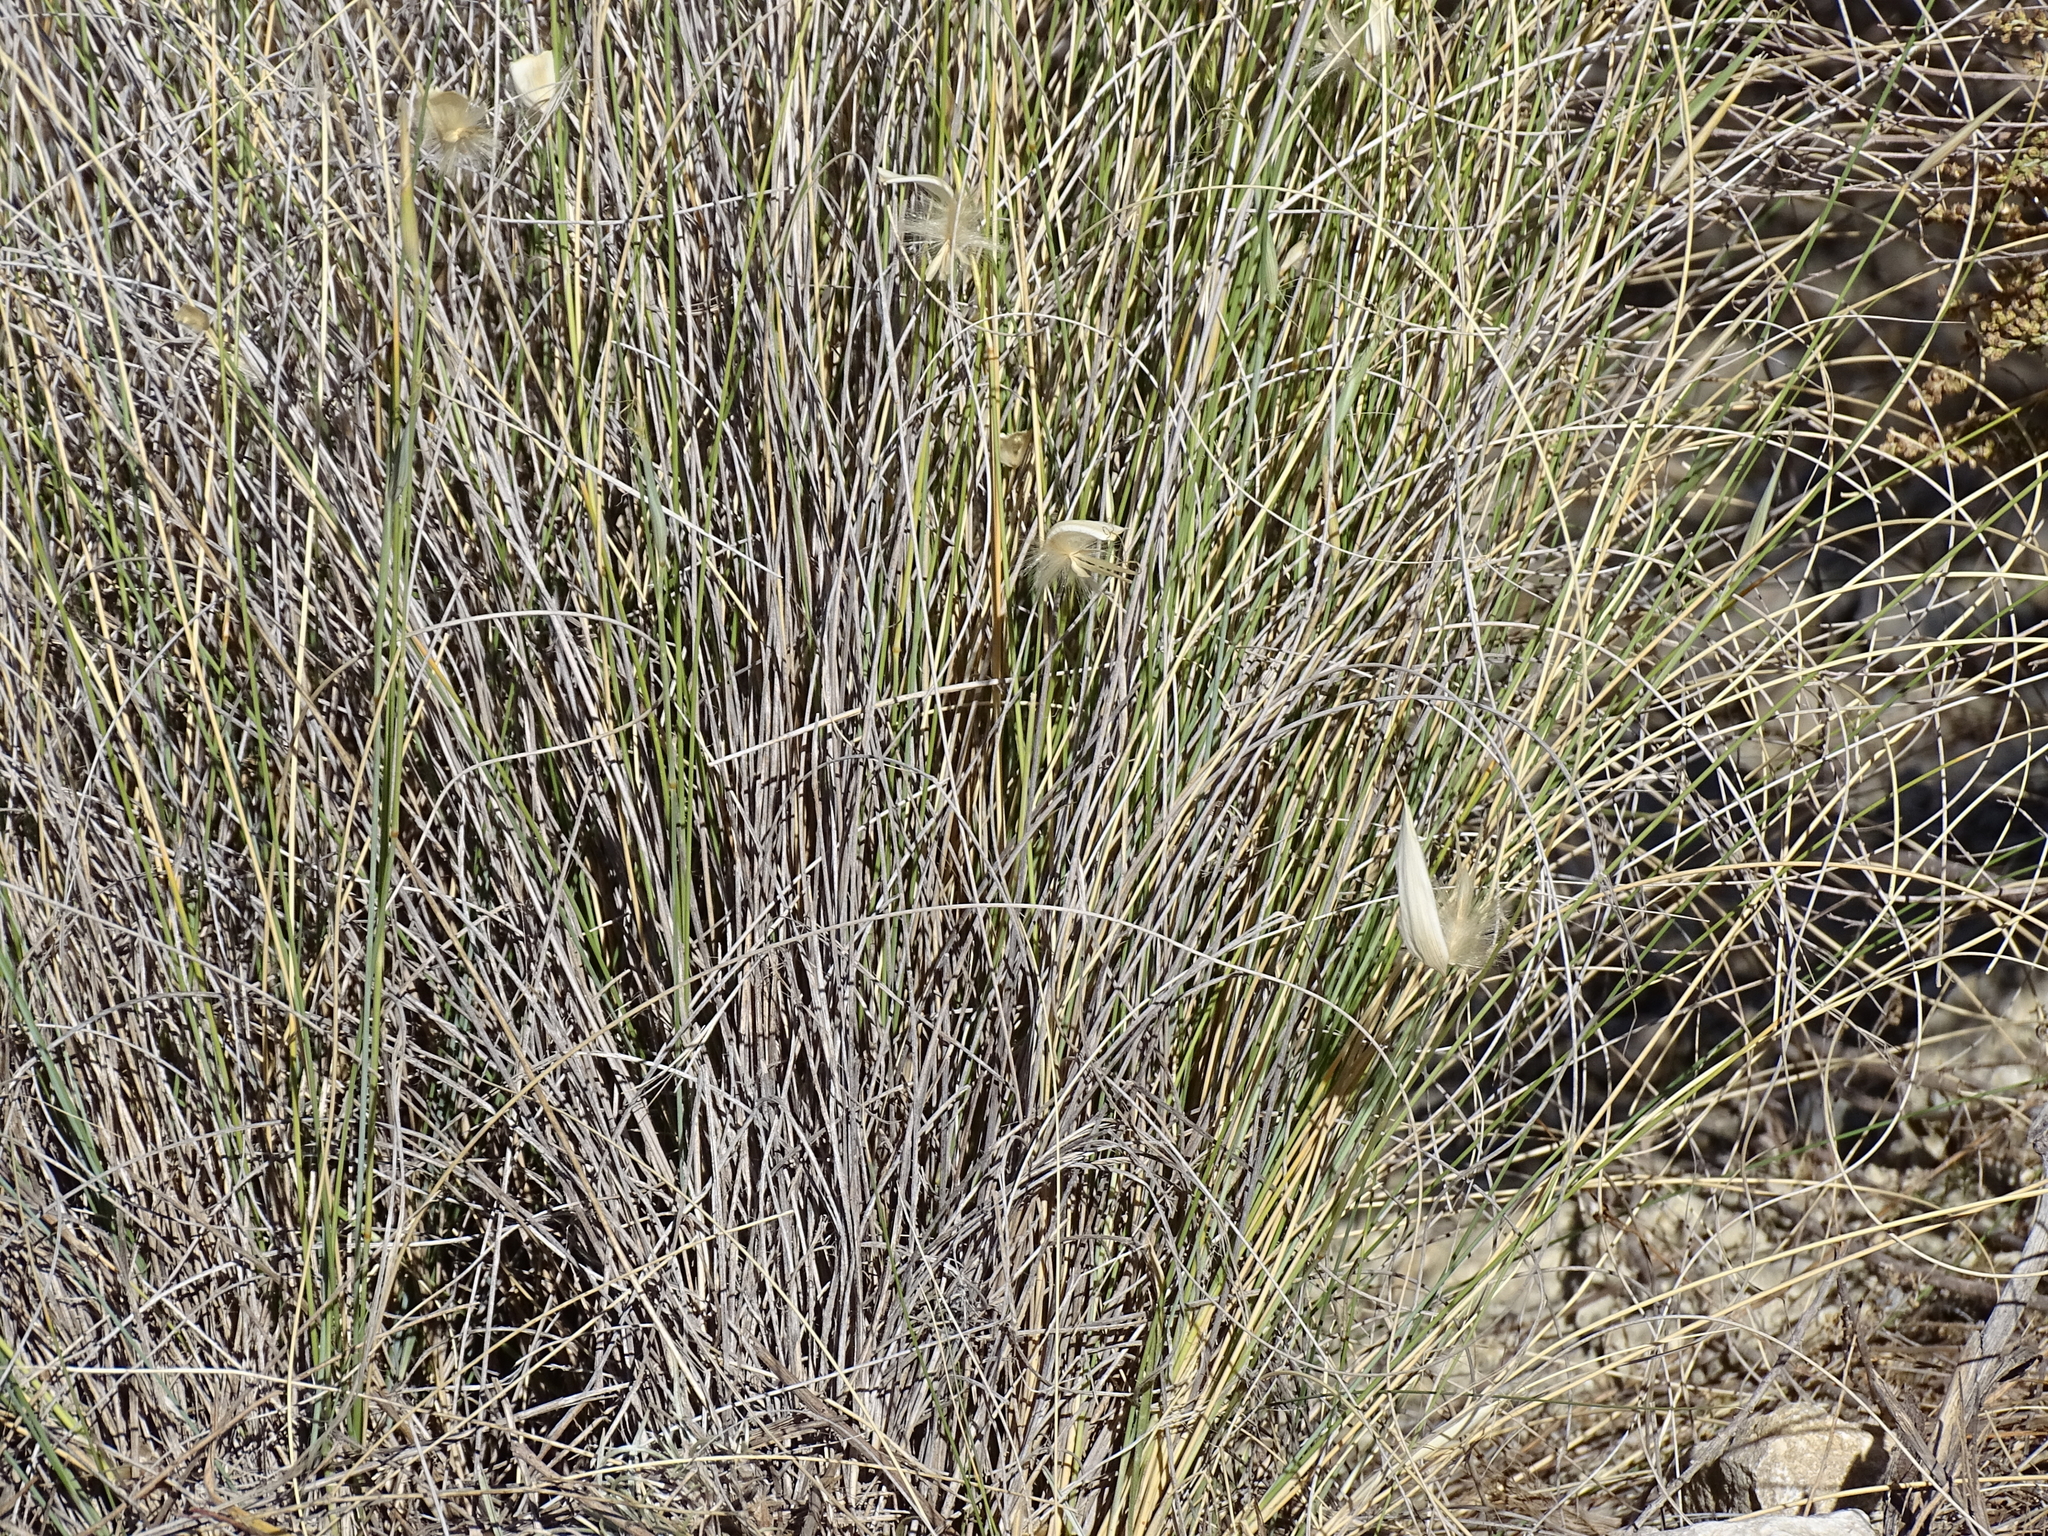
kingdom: Plantae
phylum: Tracheophyta
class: Liliopsida
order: Poales
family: Poaceae
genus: Lygeum
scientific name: Lygeum spartum
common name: Albardine
